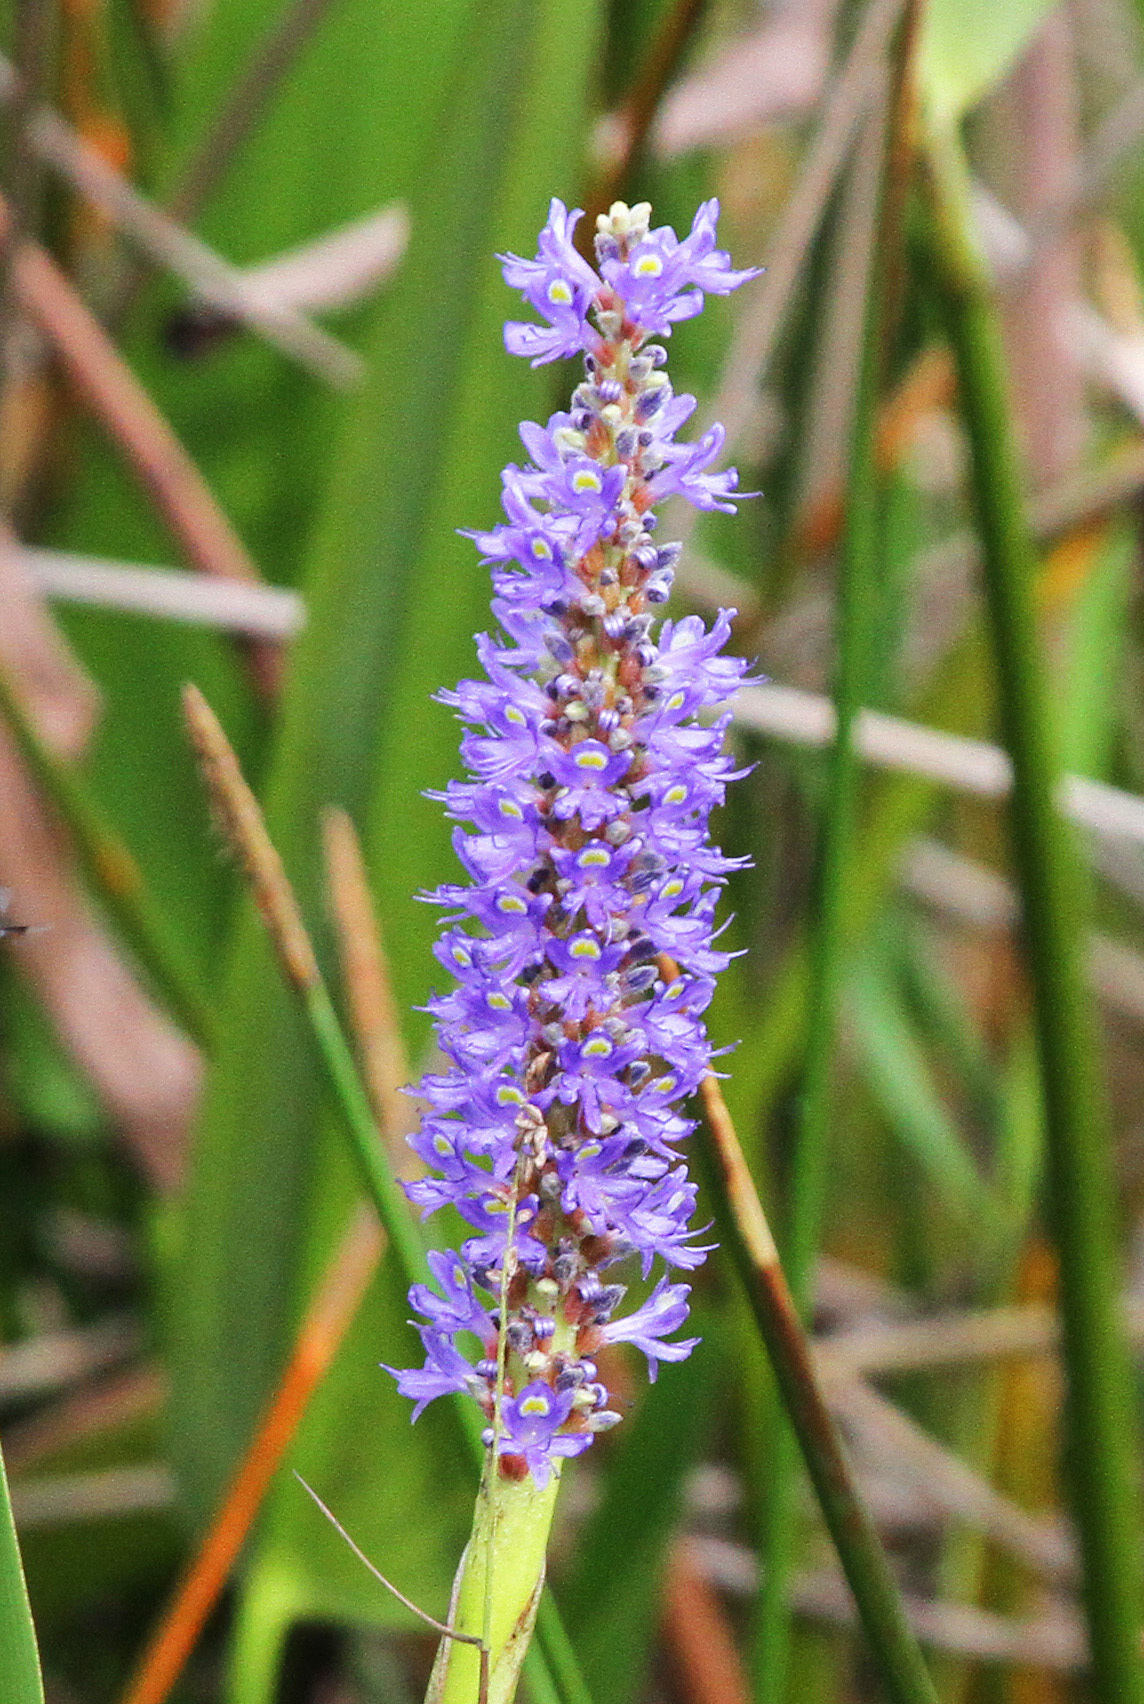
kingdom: Plantae
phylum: Tracheophyta
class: Liliopsida
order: Commelinales
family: Pontederiaceae
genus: Pontederia
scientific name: Pontederia cordata
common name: Pickerelweed
